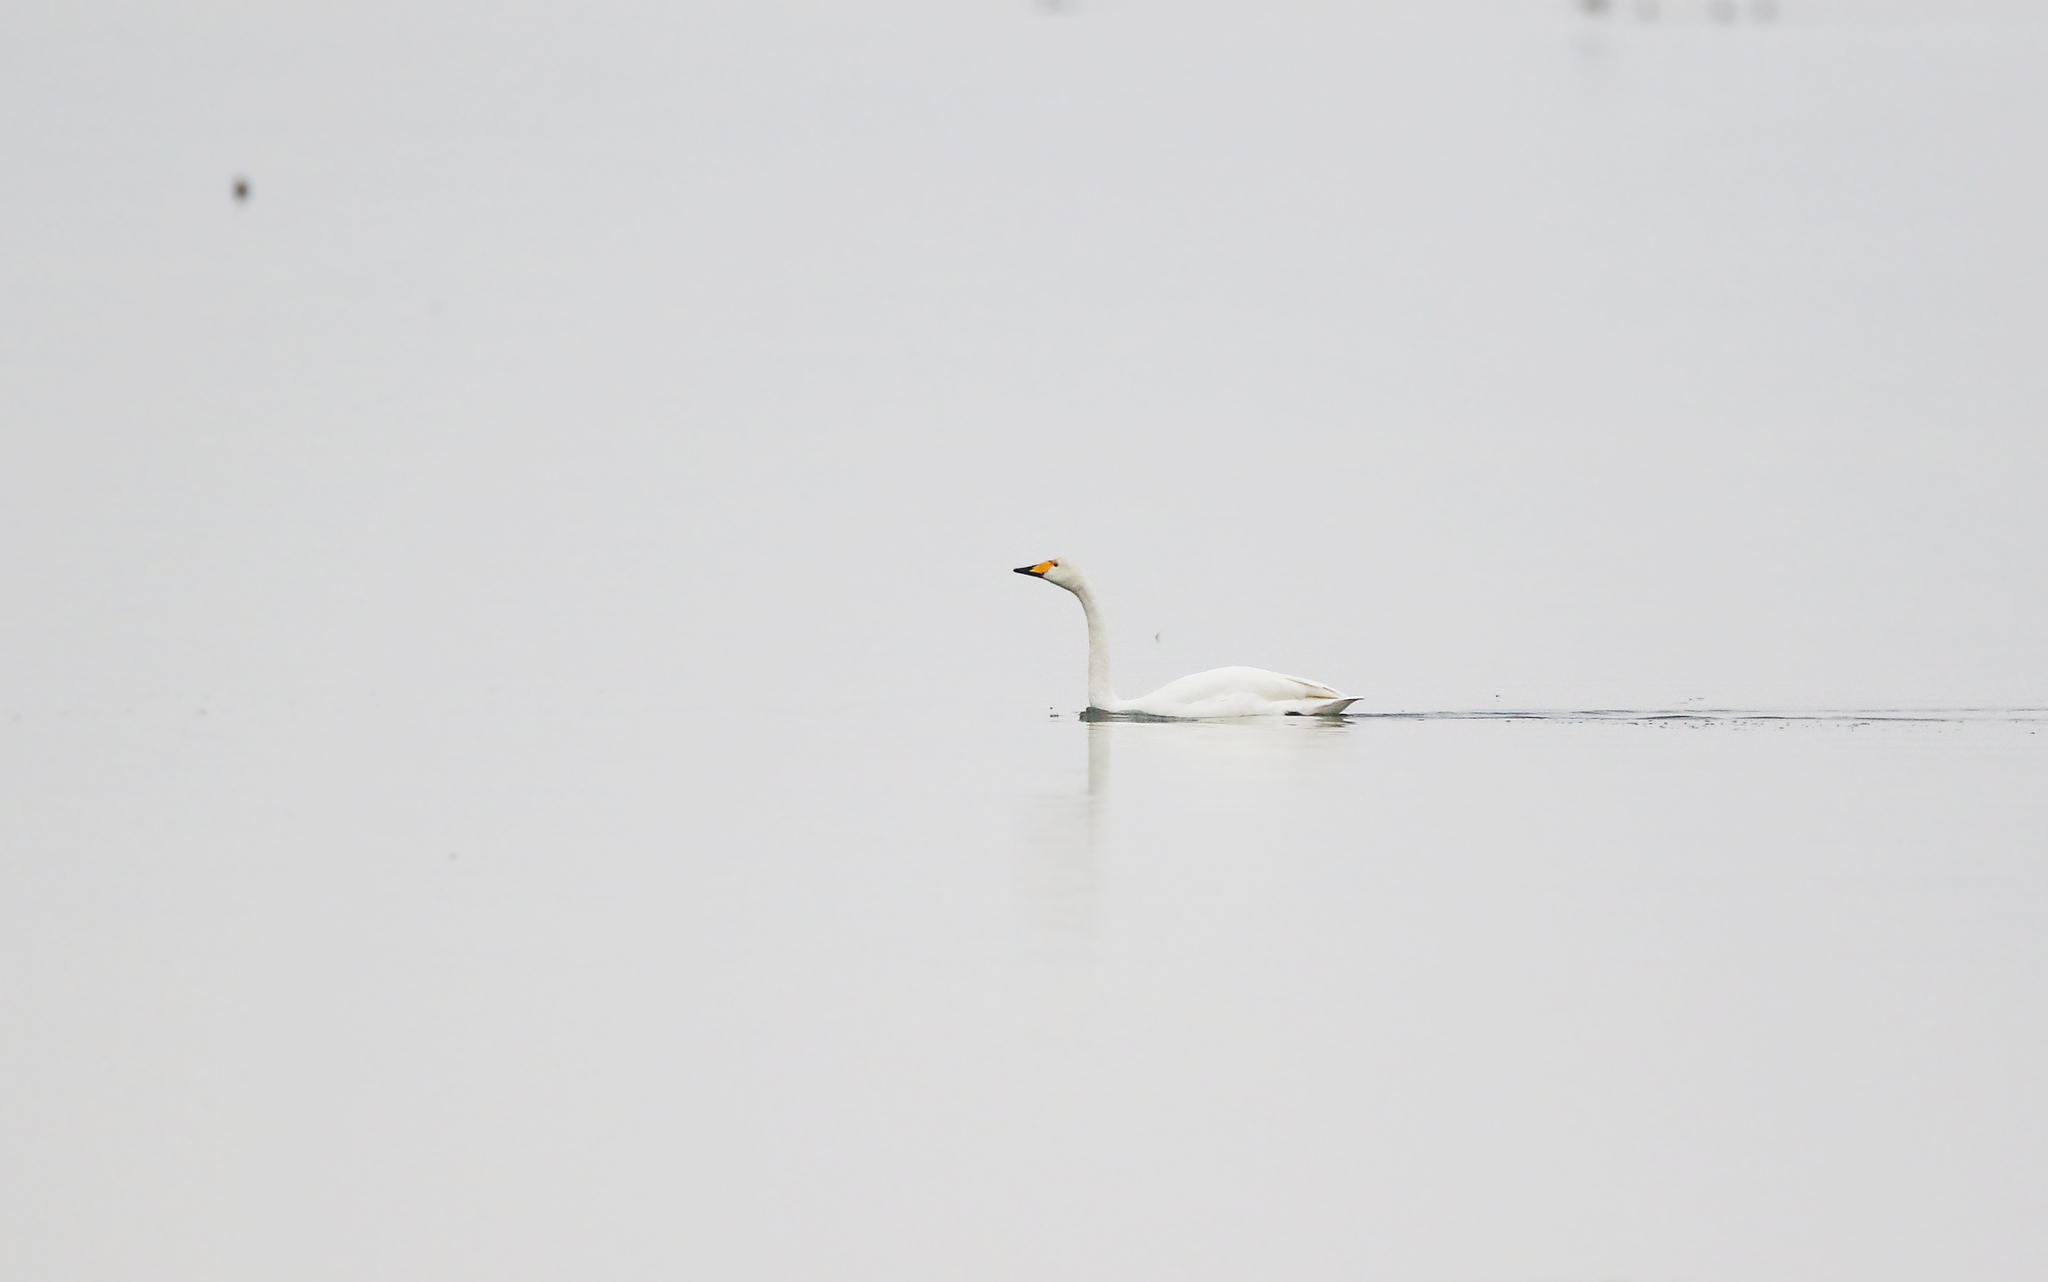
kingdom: Animalia
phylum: Chordata
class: Aves
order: Anseriformes
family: Anatidae
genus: Cygnus
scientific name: Cygnus cygnus
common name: Whooper swan
